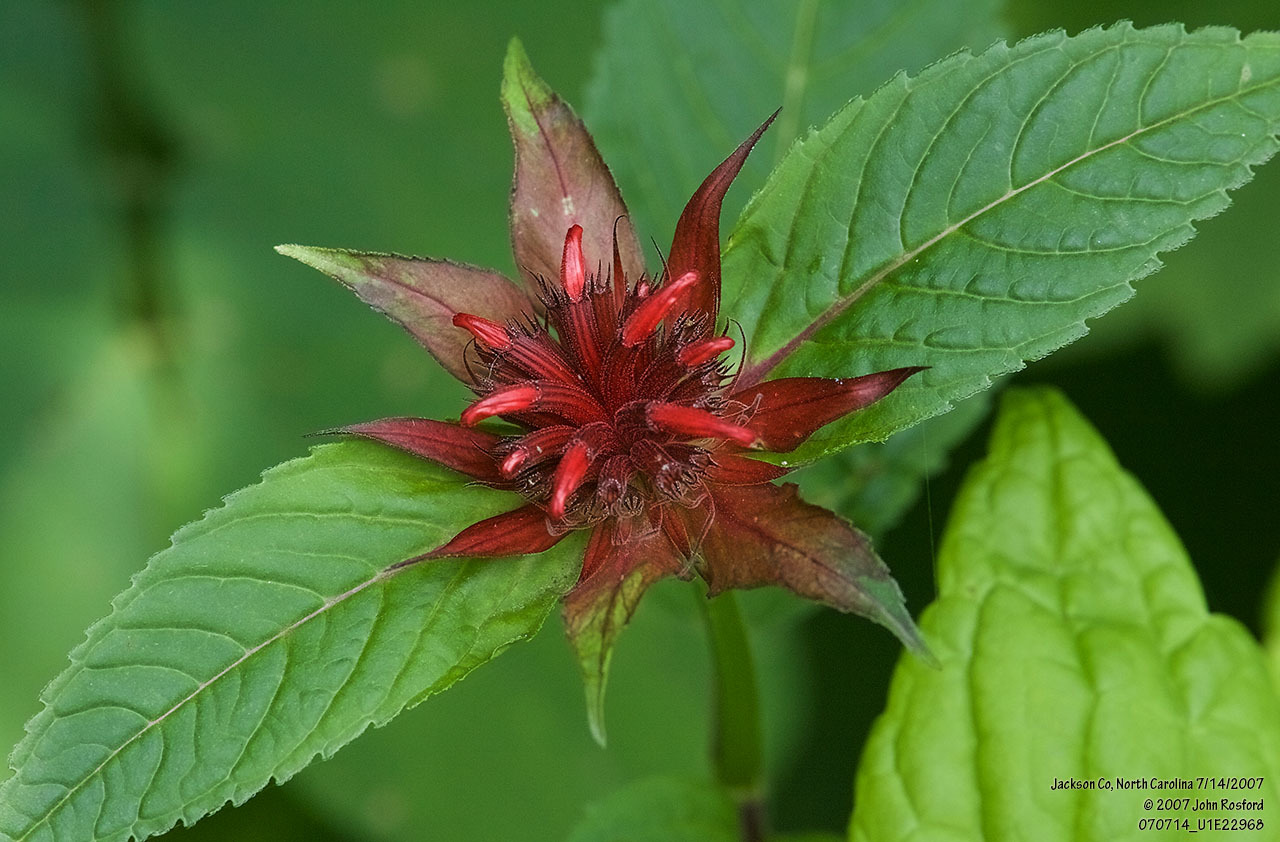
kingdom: Plantae
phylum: Tracheophyta
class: Magnoliopsida
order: Lamiales
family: Lamiaceae
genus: Monarda
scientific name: Monarda didyma
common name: Beebalm
